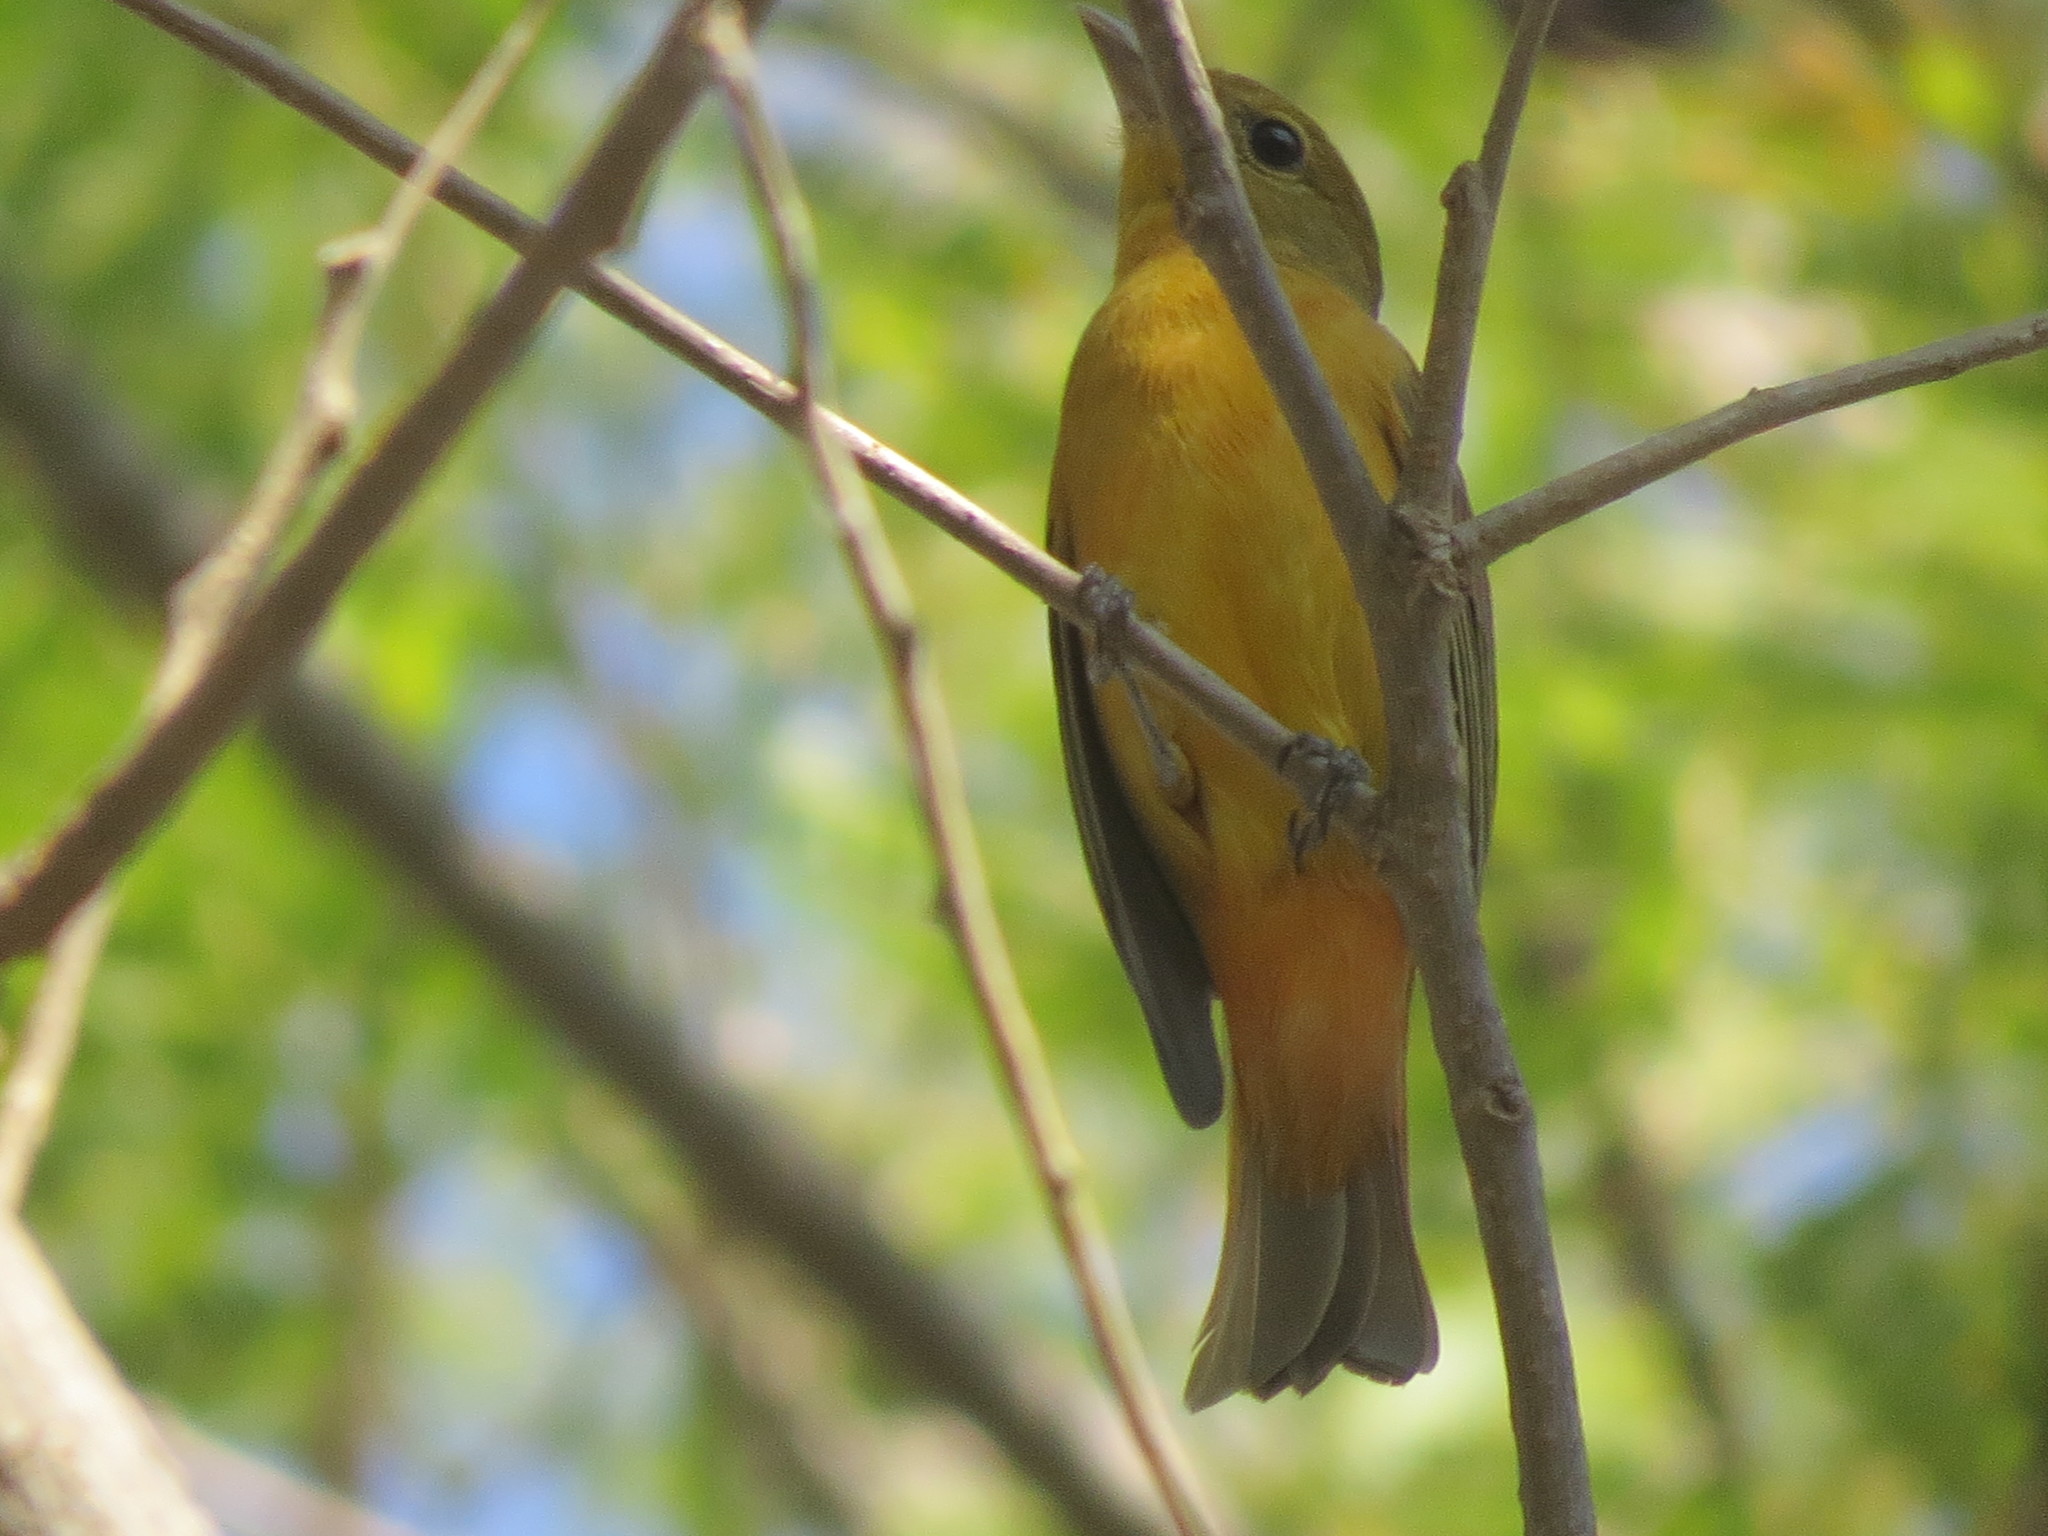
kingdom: Animalia
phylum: Chordata
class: Aves
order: Passeriformes
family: Cardinalidae
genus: Piranga
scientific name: Piranga rubra
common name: Summer tanager
